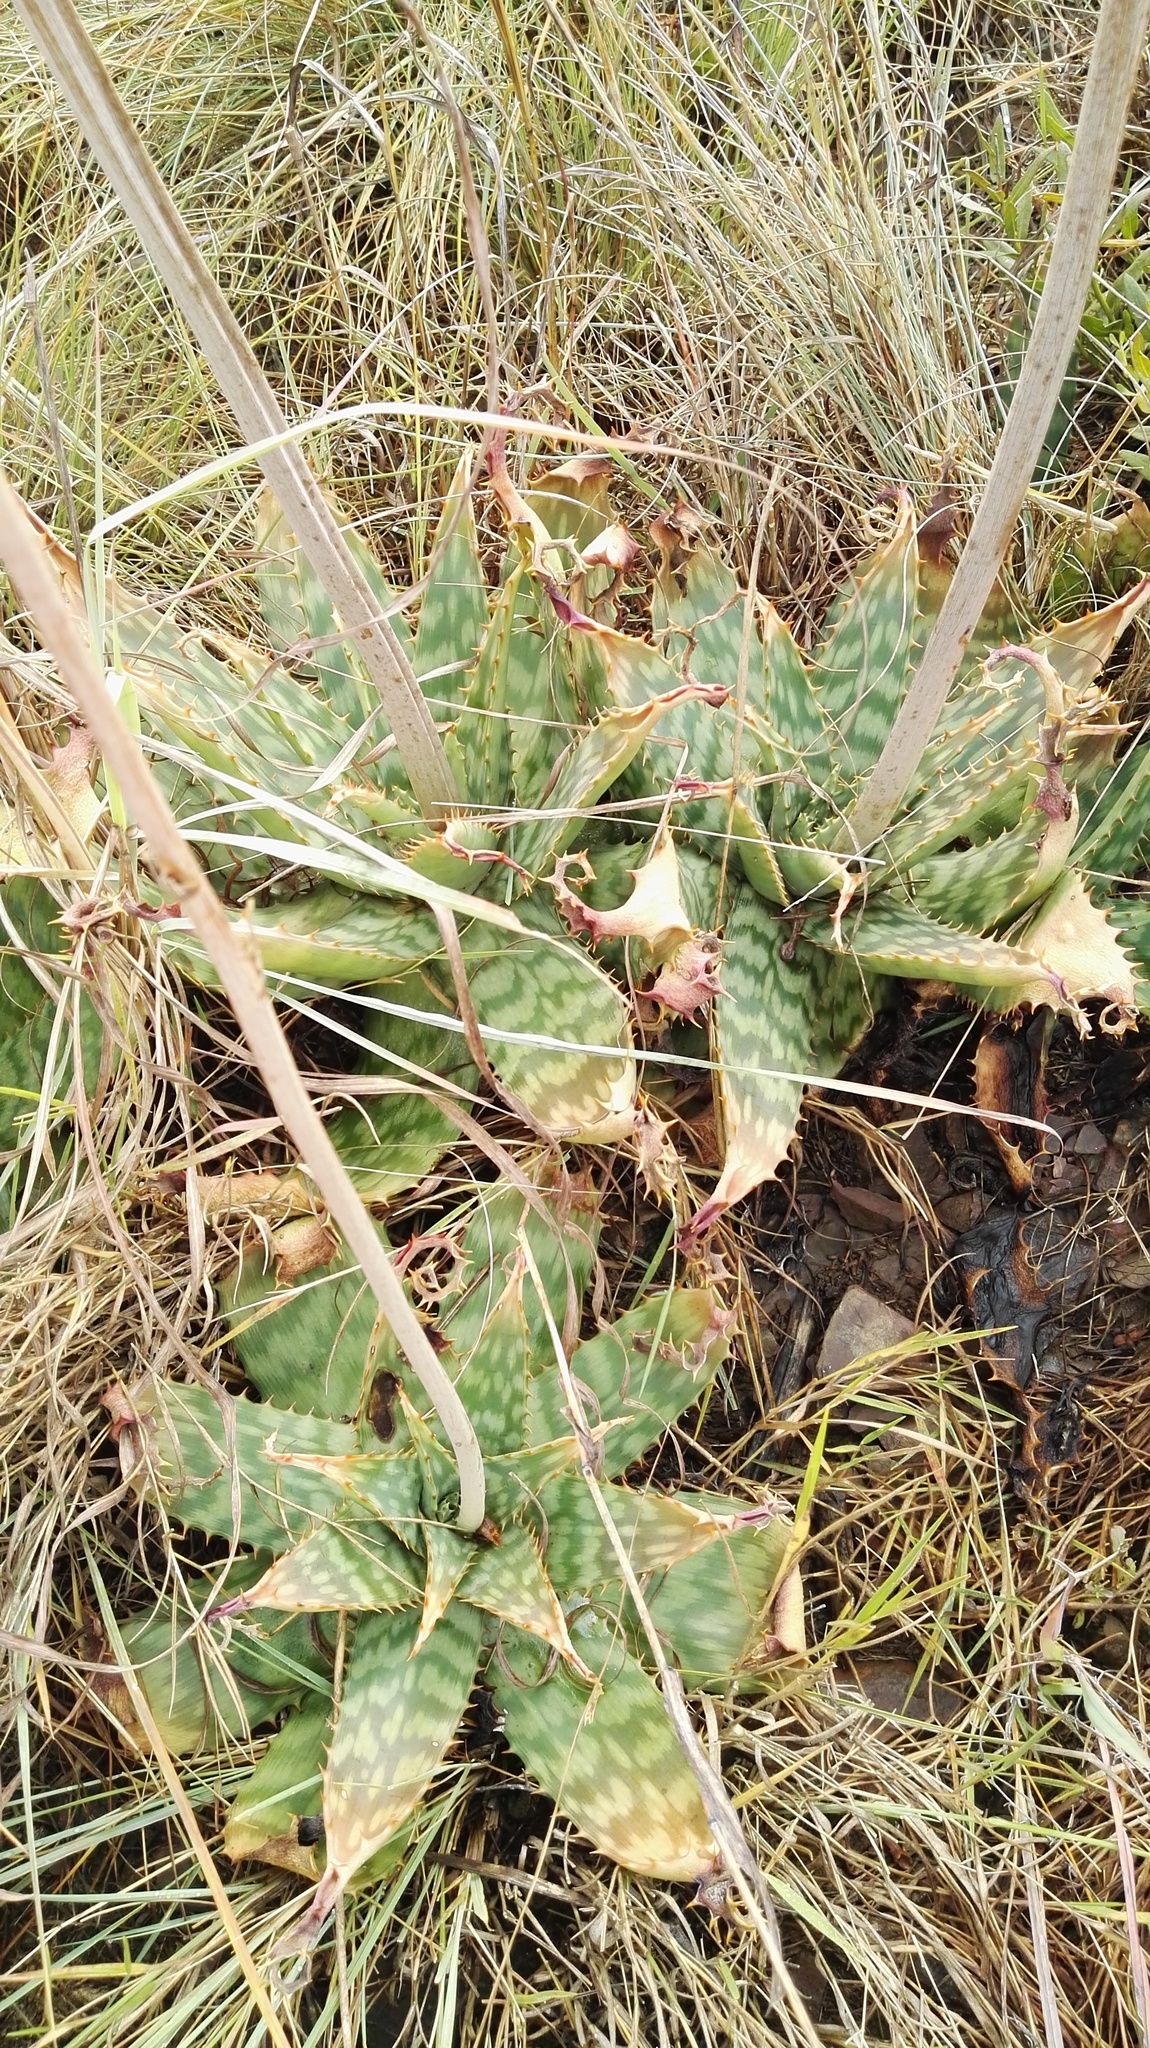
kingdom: Plantae
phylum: Tracheophyta
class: Liliopsida
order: Asparagales
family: Asphodelaceae
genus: Aloe
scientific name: Aloe davyana
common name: Spotted aloe
